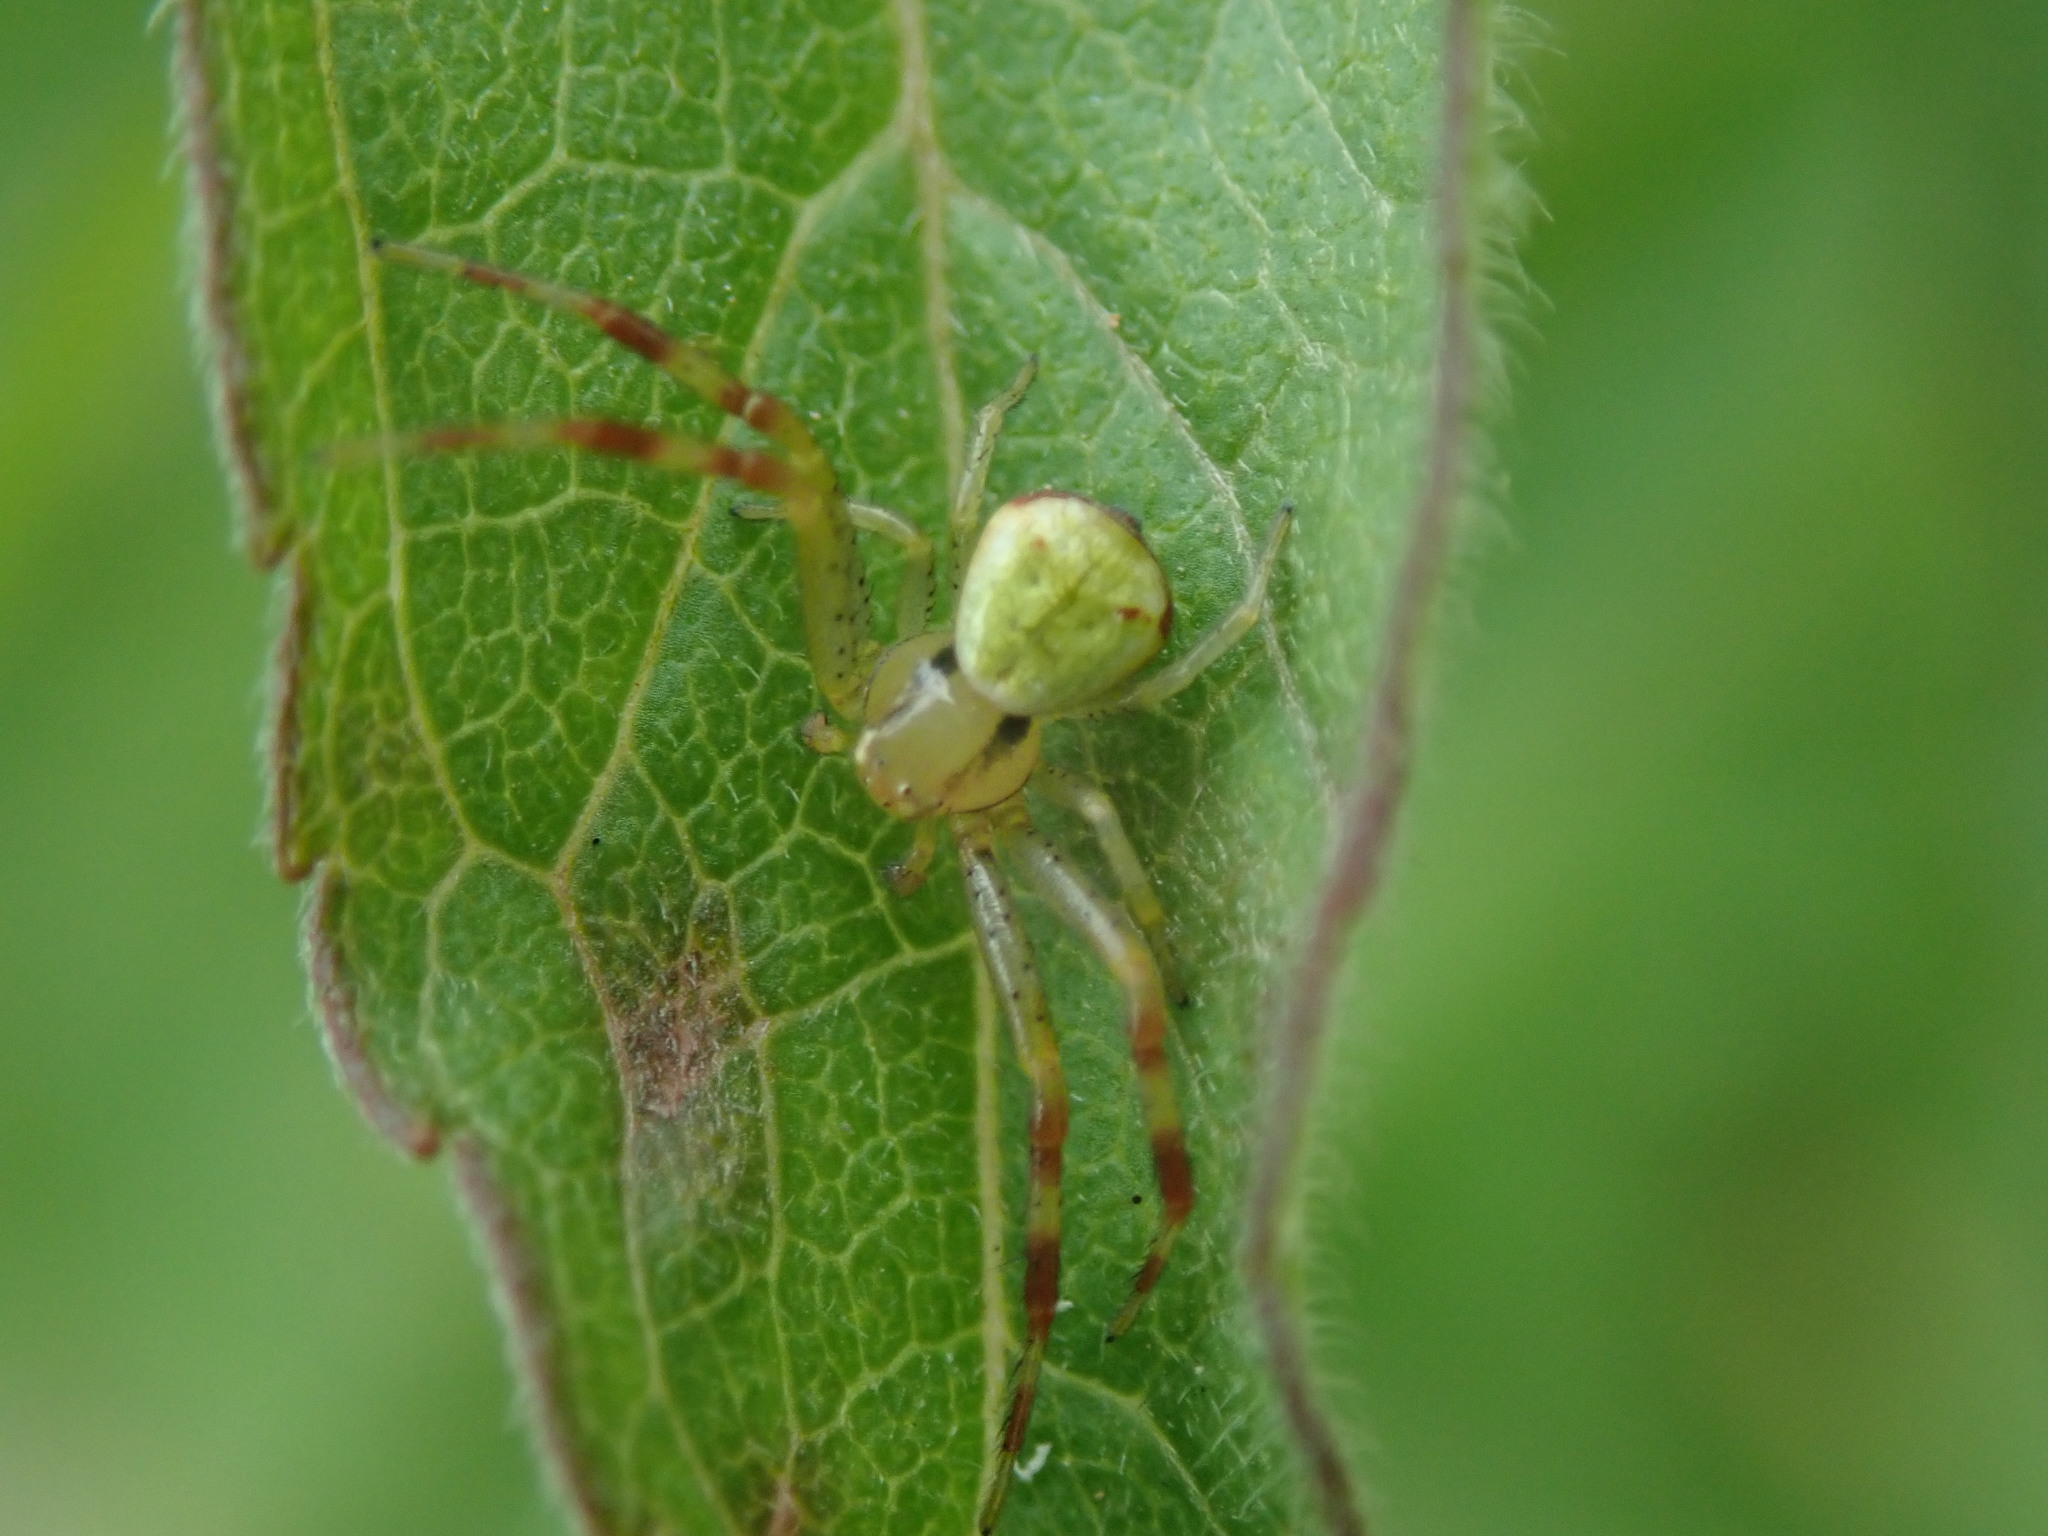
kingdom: Animalia
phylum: Arthropoda
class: Arachnida
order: Araneae
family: Thomisidae
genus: Ebrechtella
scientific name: Ebrechtella tricuspidata
